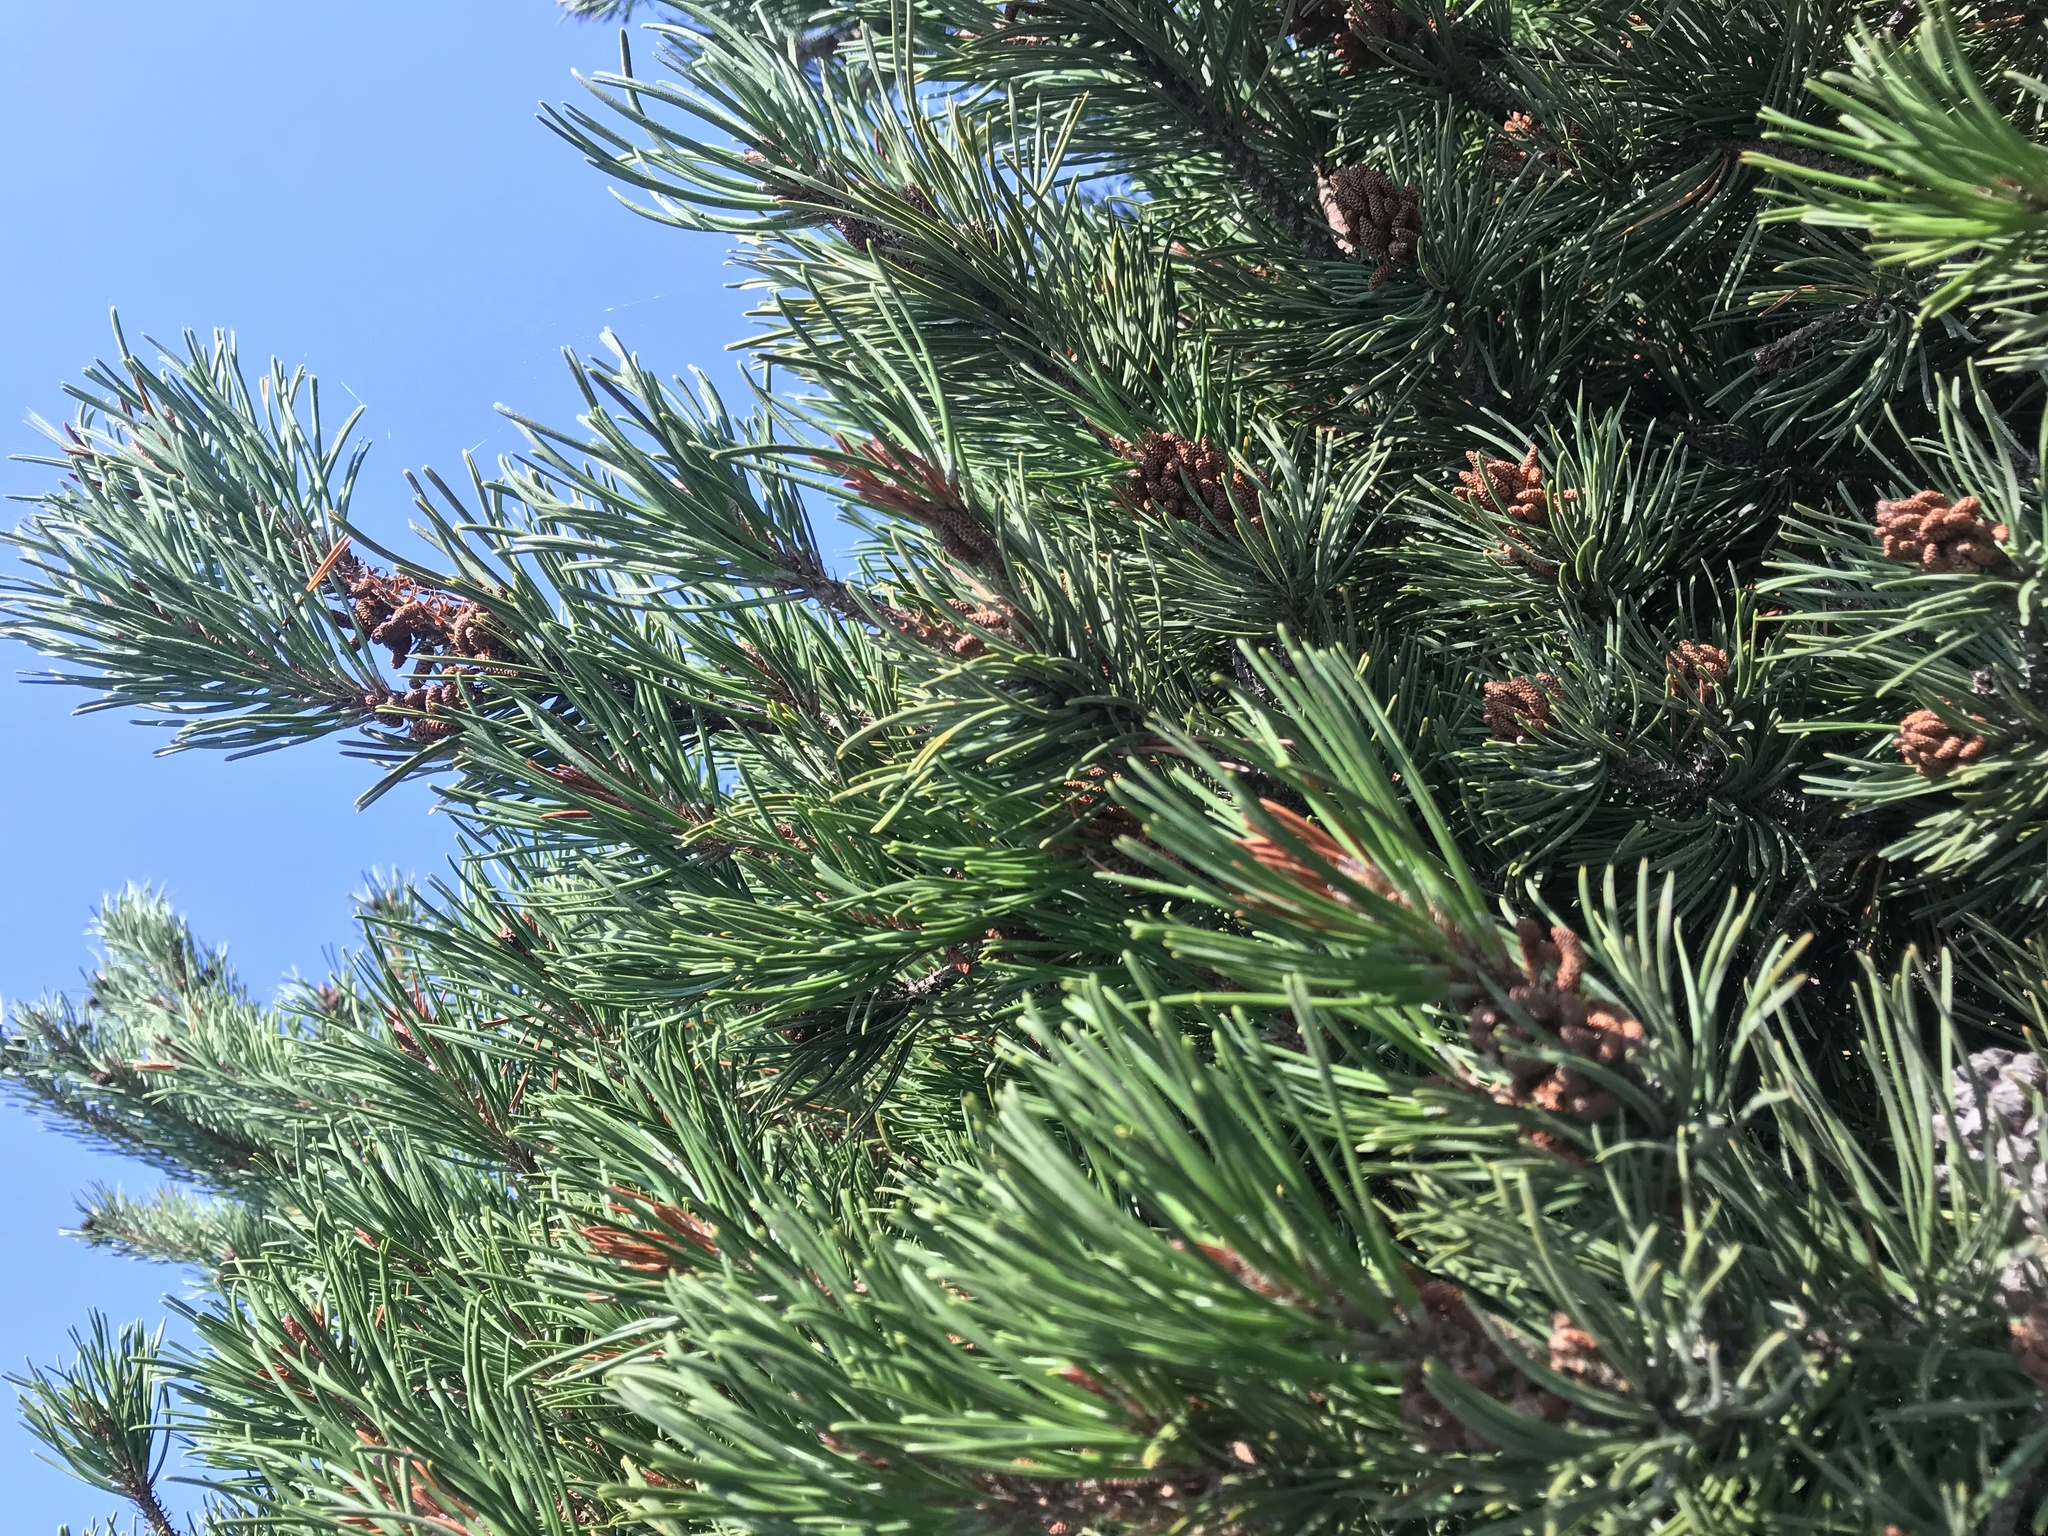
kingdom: Plantae
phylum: Tracheophyta
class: Pinopsida
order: Pinales
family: Pinaceae
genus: Pinus
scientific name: Pinus contorta
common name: Lodgepole pine
